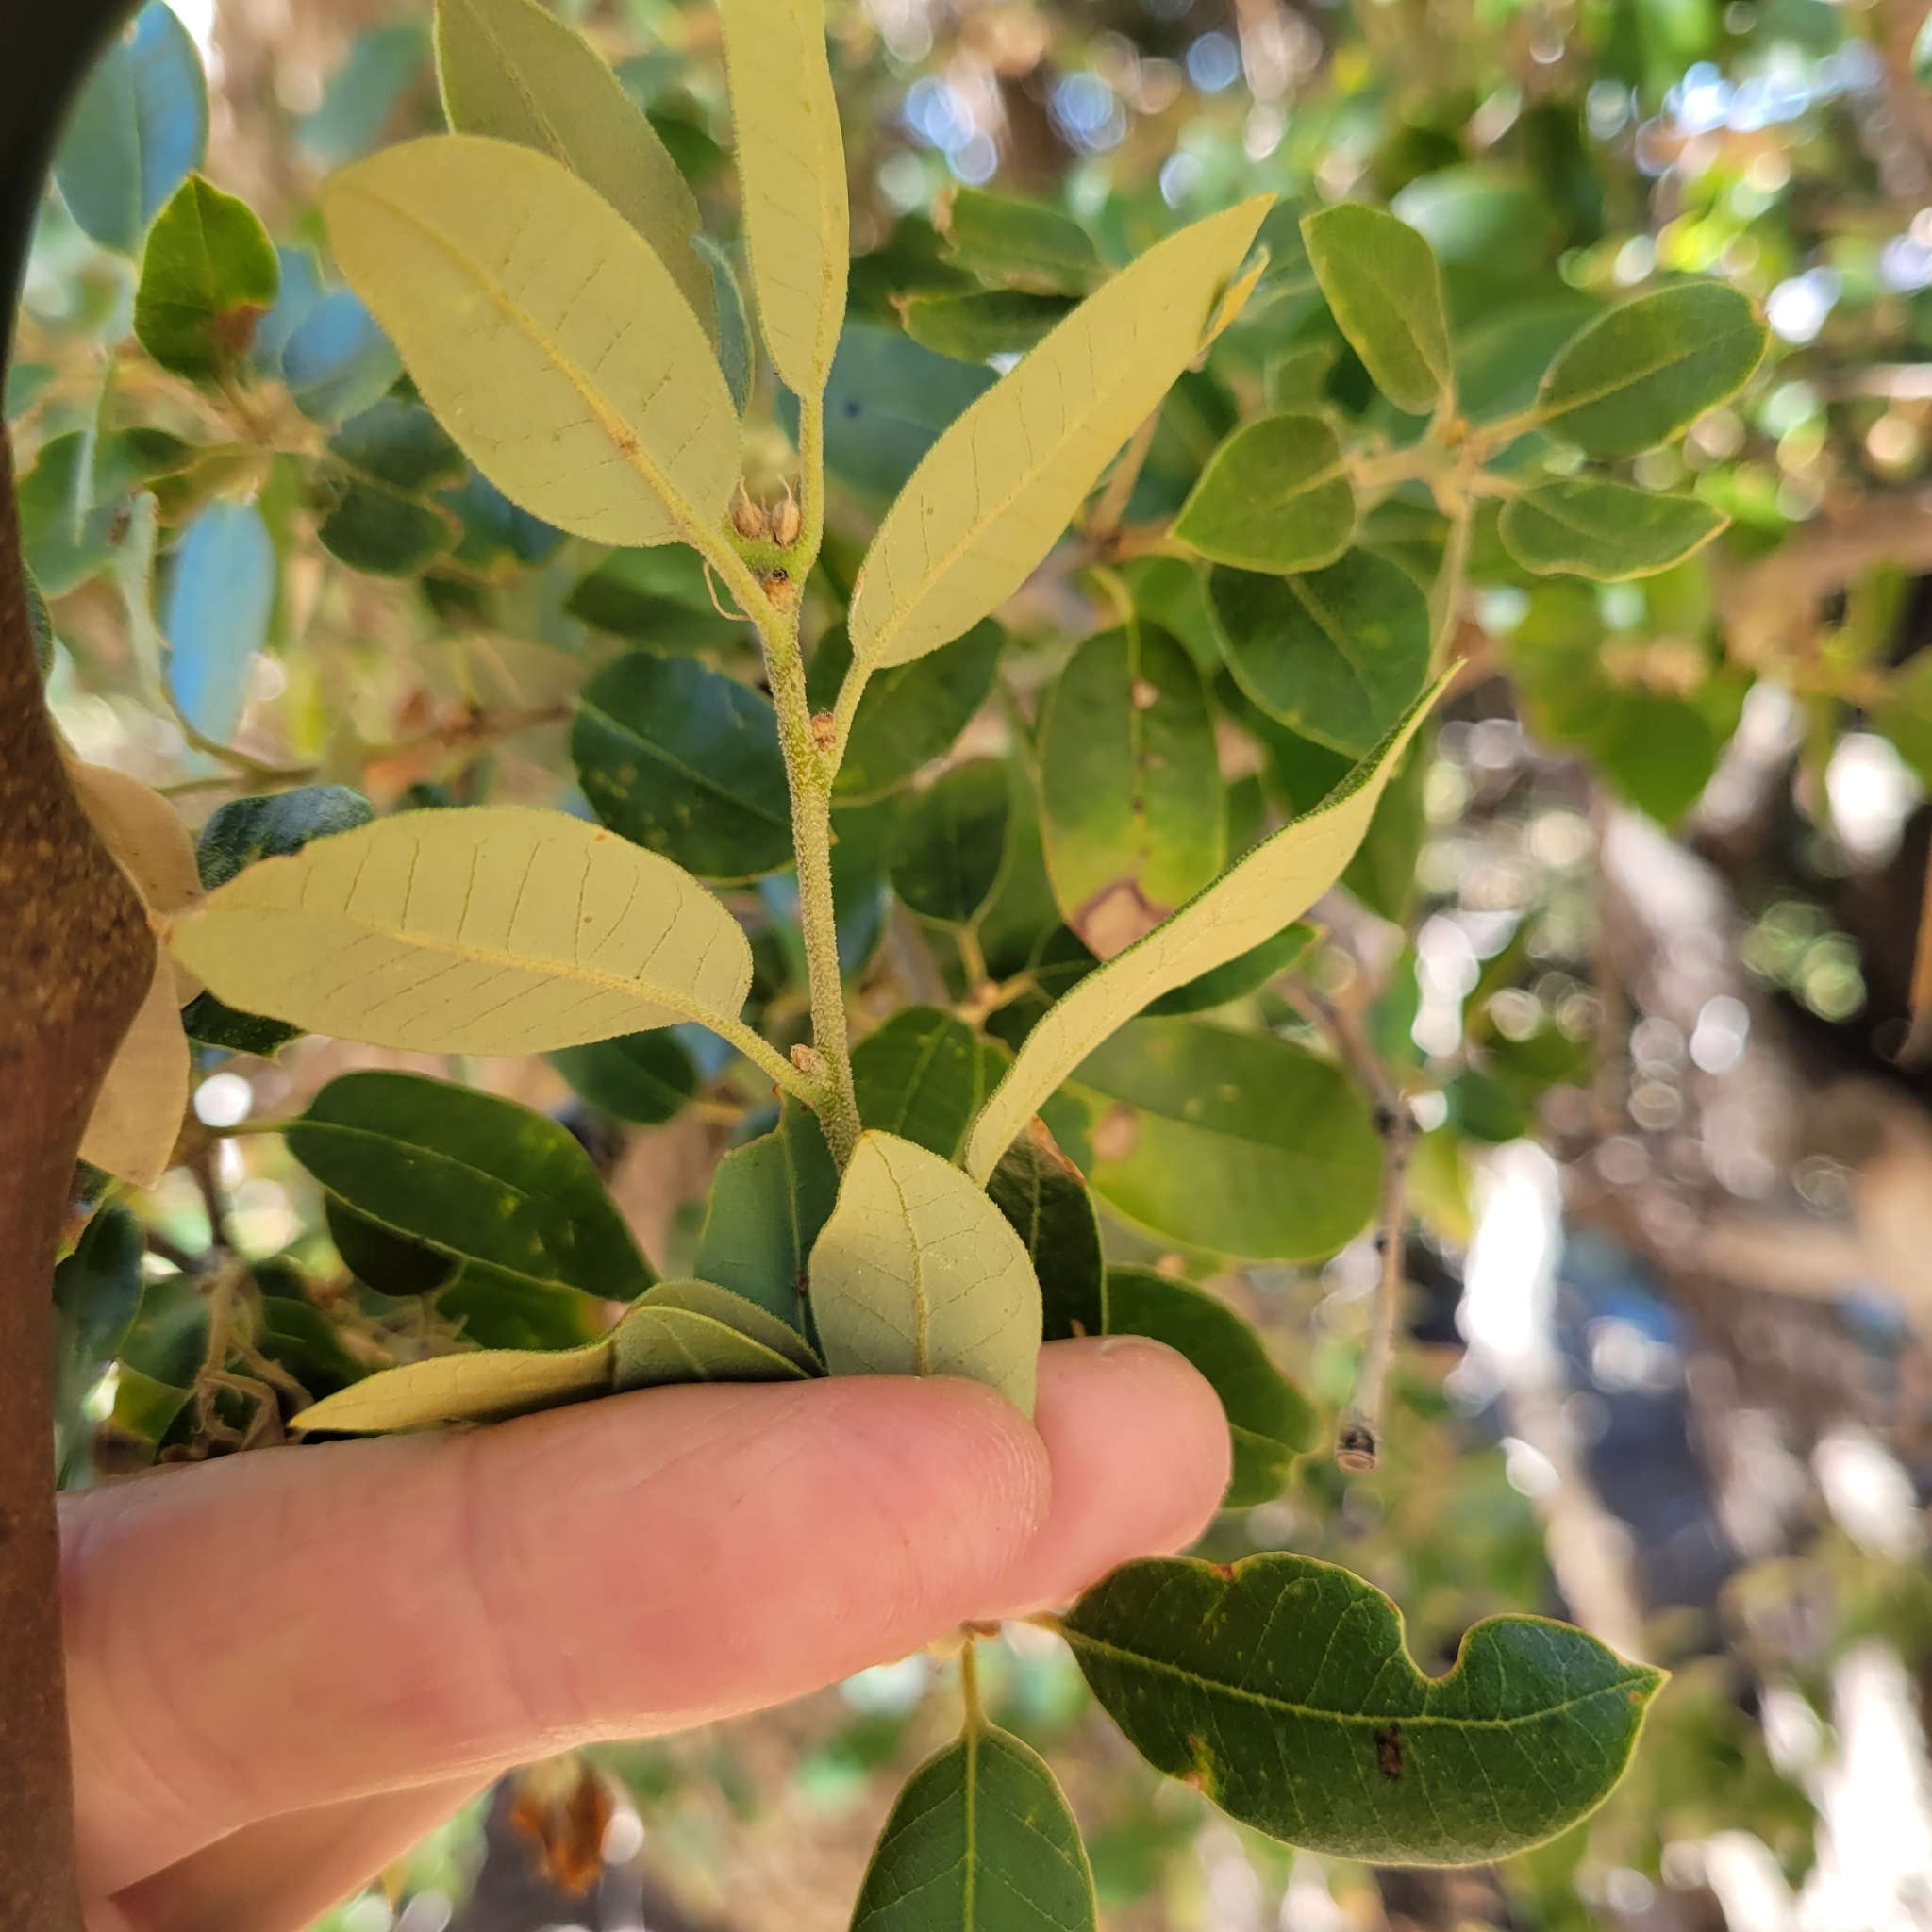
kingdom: Plantae
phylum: Tracheophyta
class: Magnoliopsida
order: Fagales
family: Fagaceae
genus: Quercus
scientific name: Quercus chrysolepis
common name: Canyon live oak
